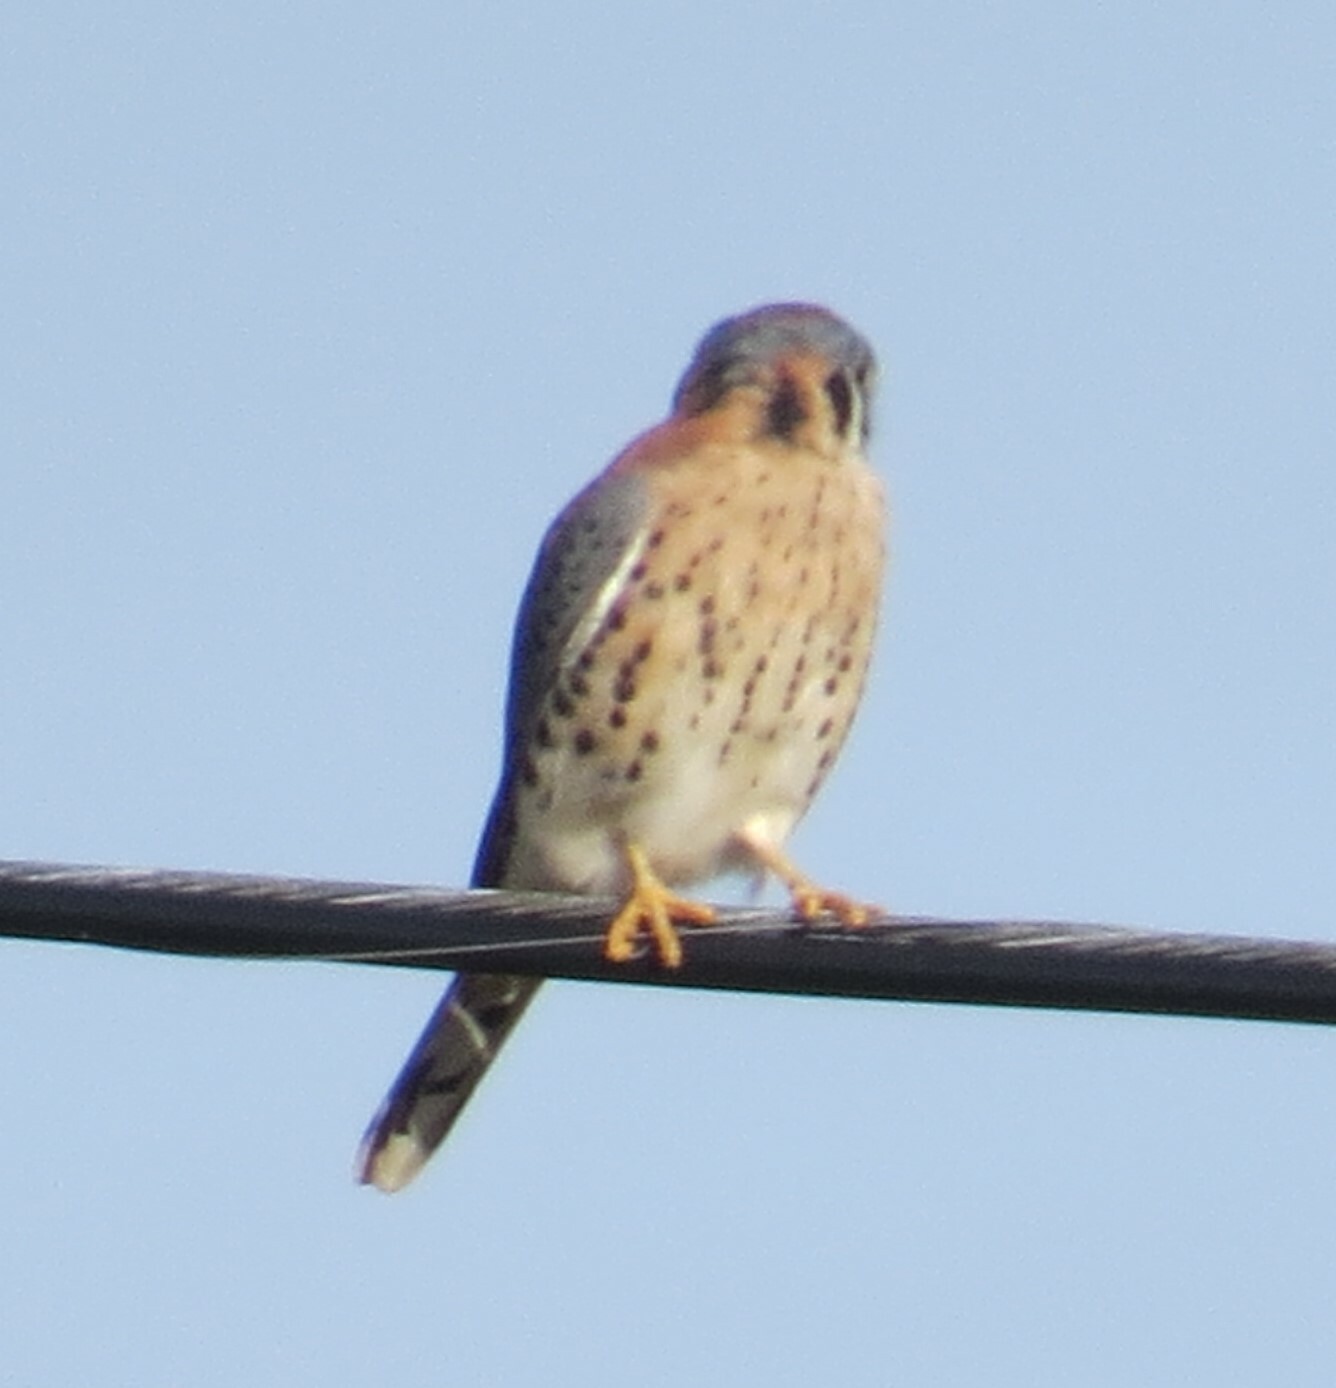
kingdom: Animalia
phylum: Chordata
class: Aves
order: Falconiformes
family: Falconidae
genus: Falco
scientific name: Falco sparverius
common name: American kestrel
